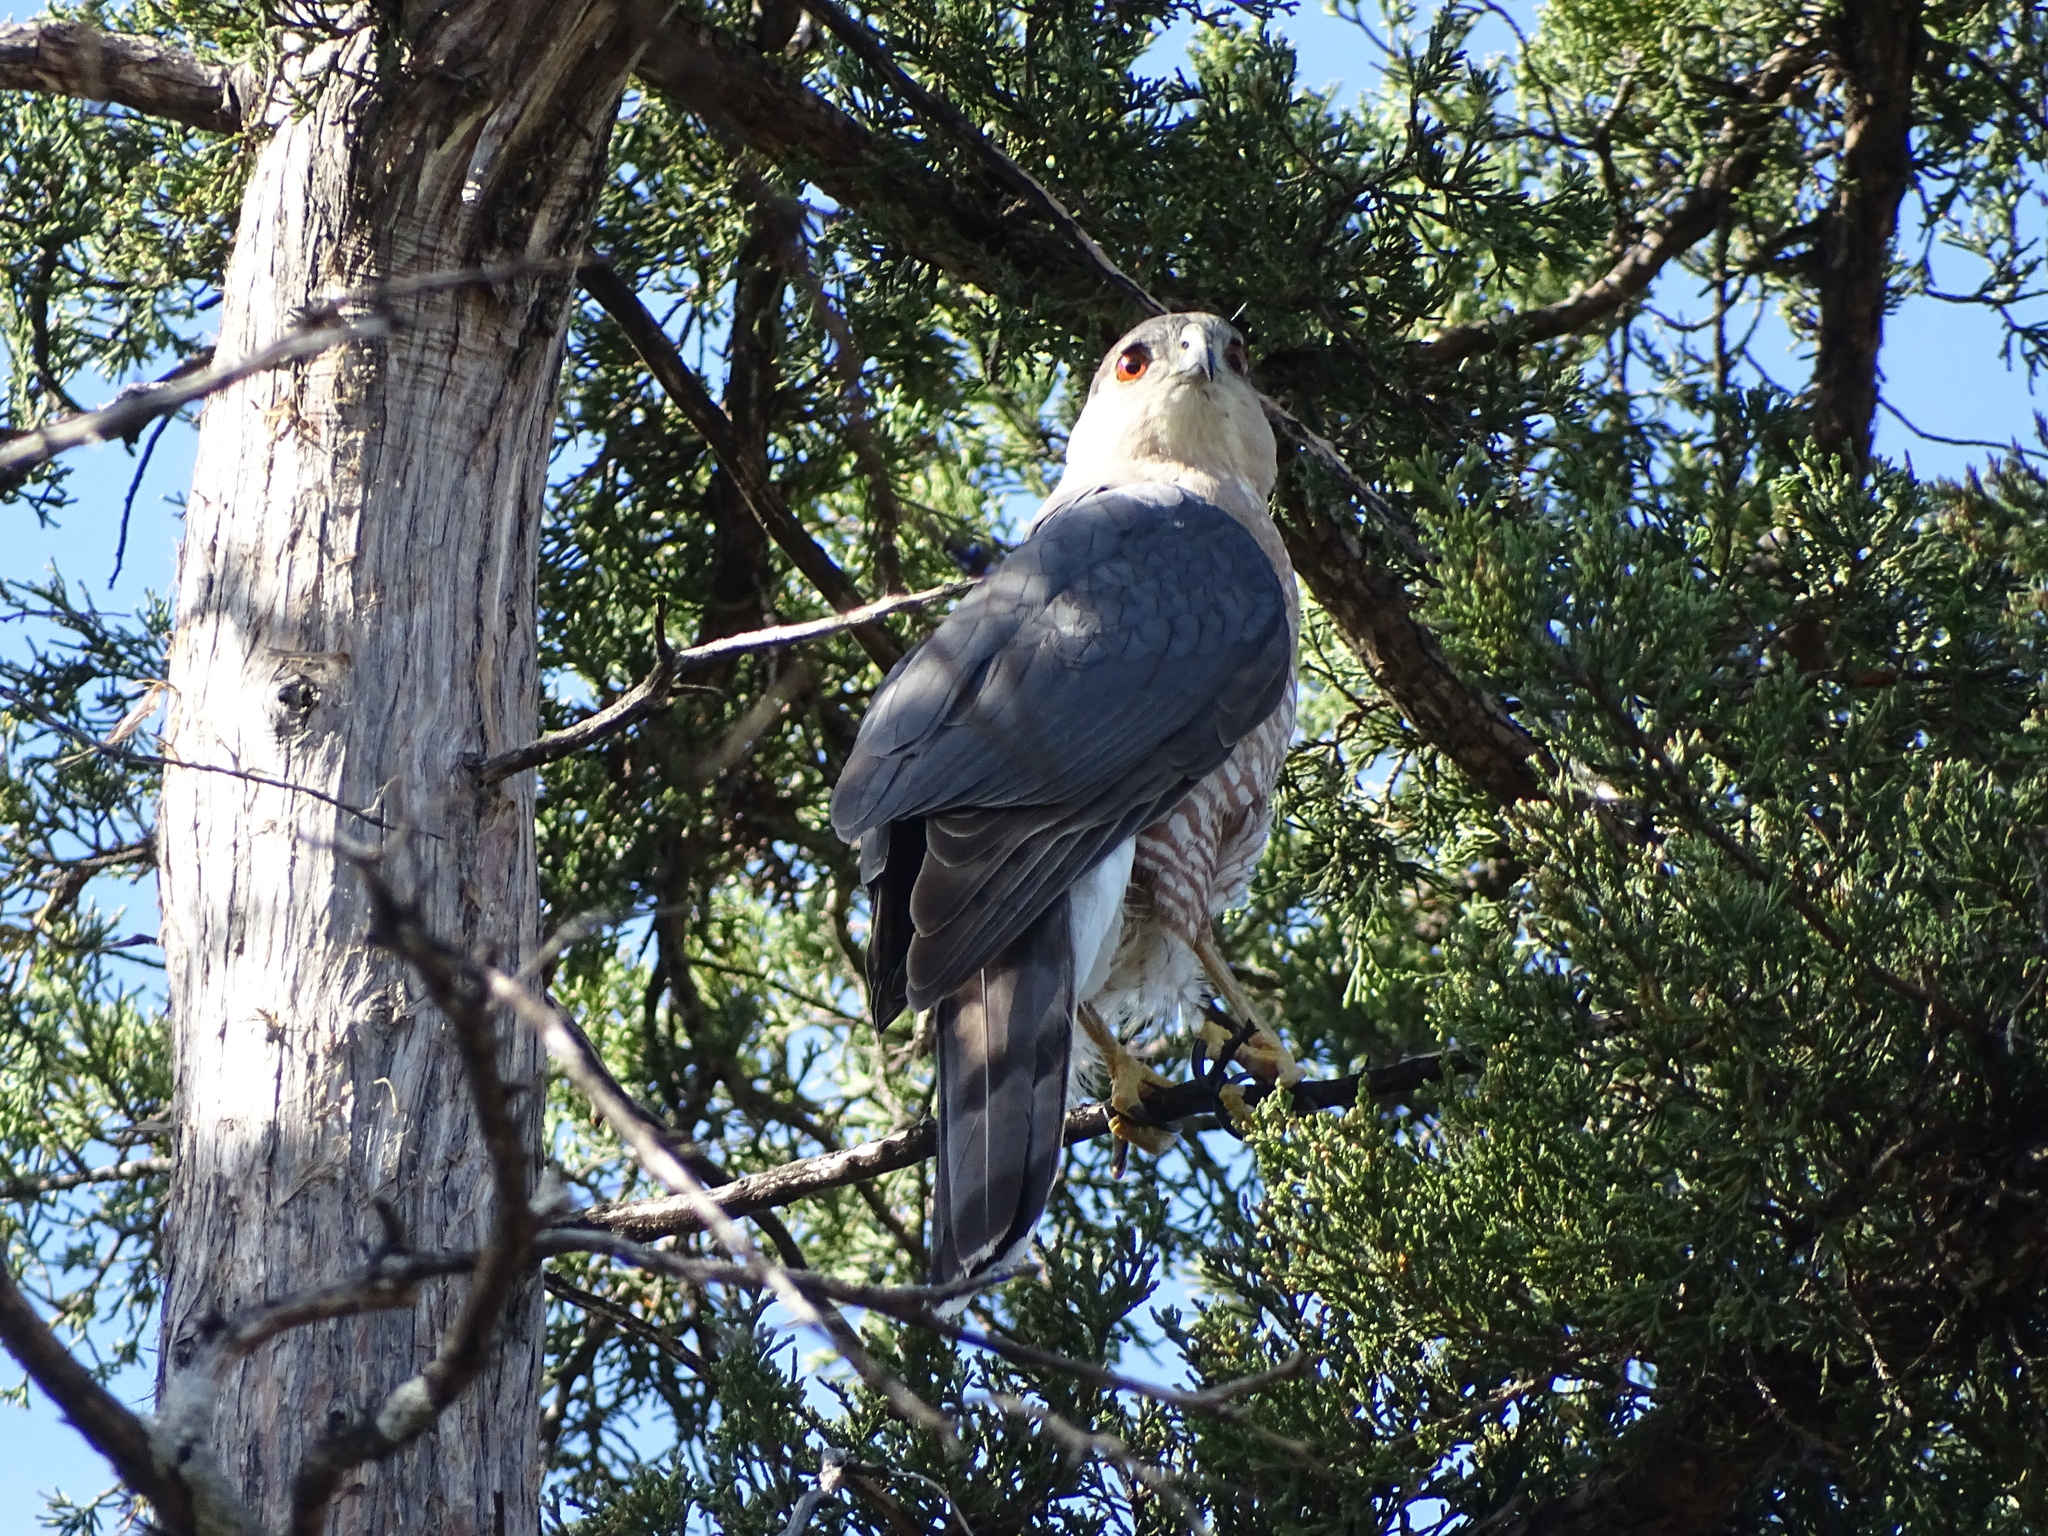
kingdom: Animalia
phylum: Chordata
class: Aves
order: Accipitriformes
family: Accipitridae
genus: Accipiter
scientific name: Accipiter cooperii
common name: Cooper's hawk
